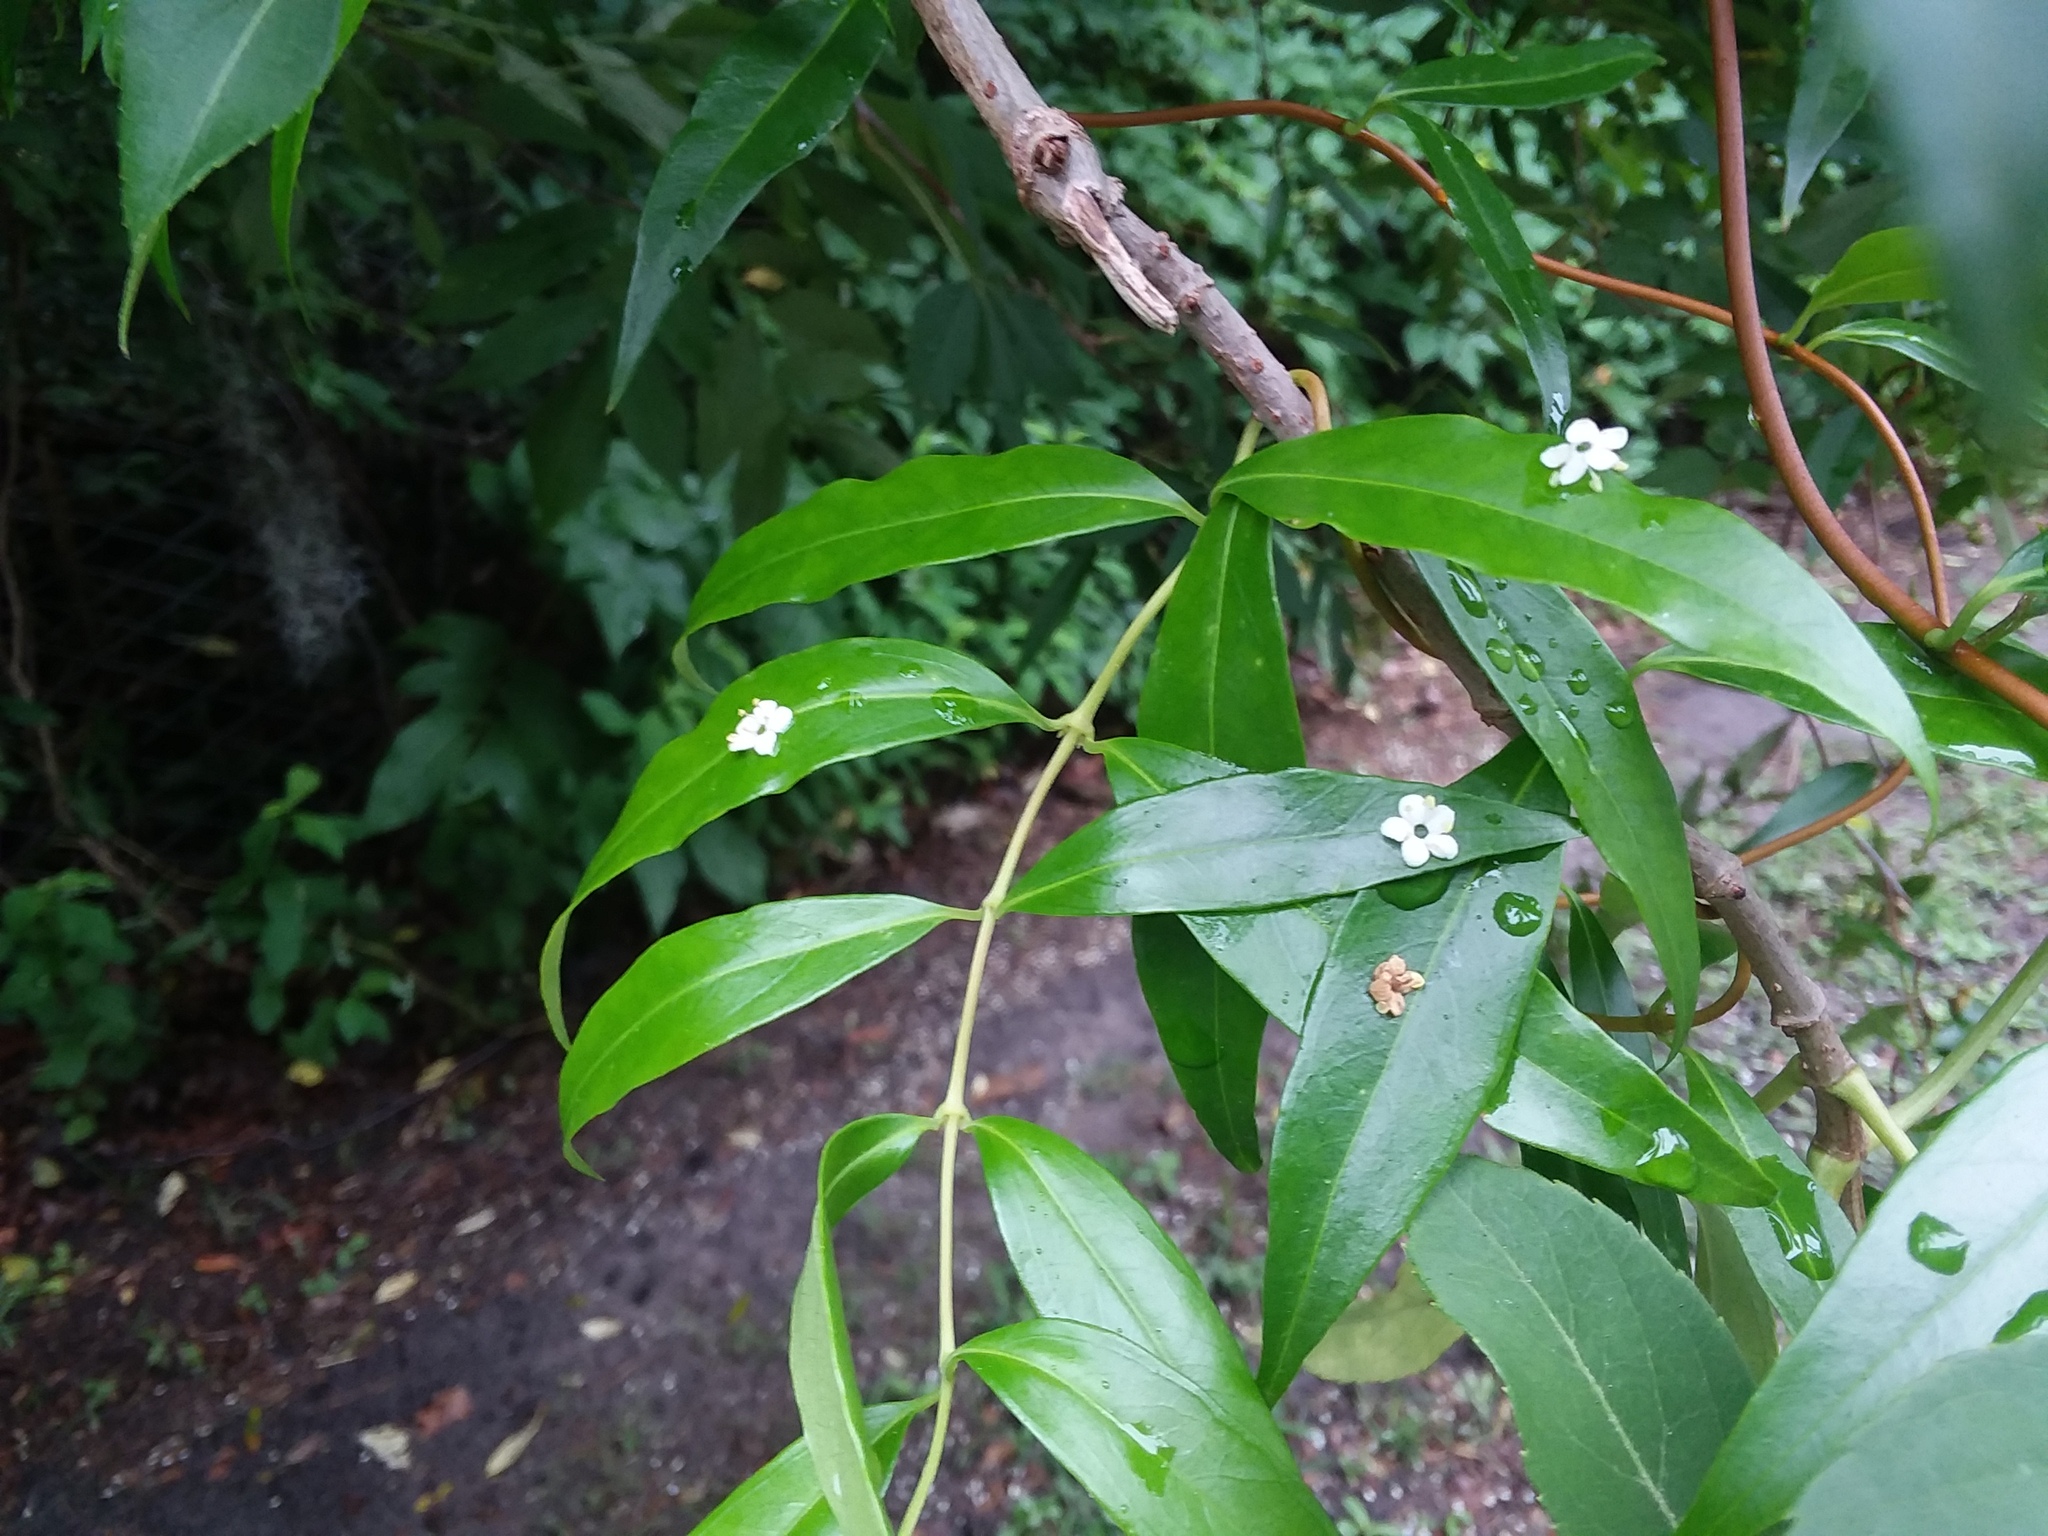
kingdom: Plantae
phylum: Tracheophyta
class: Magnoliopsida
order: Gentianales
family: Gelsemiaceae
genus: Gelsemium
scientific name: Gelsemium sempervirens
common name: Carolina-jasmine
